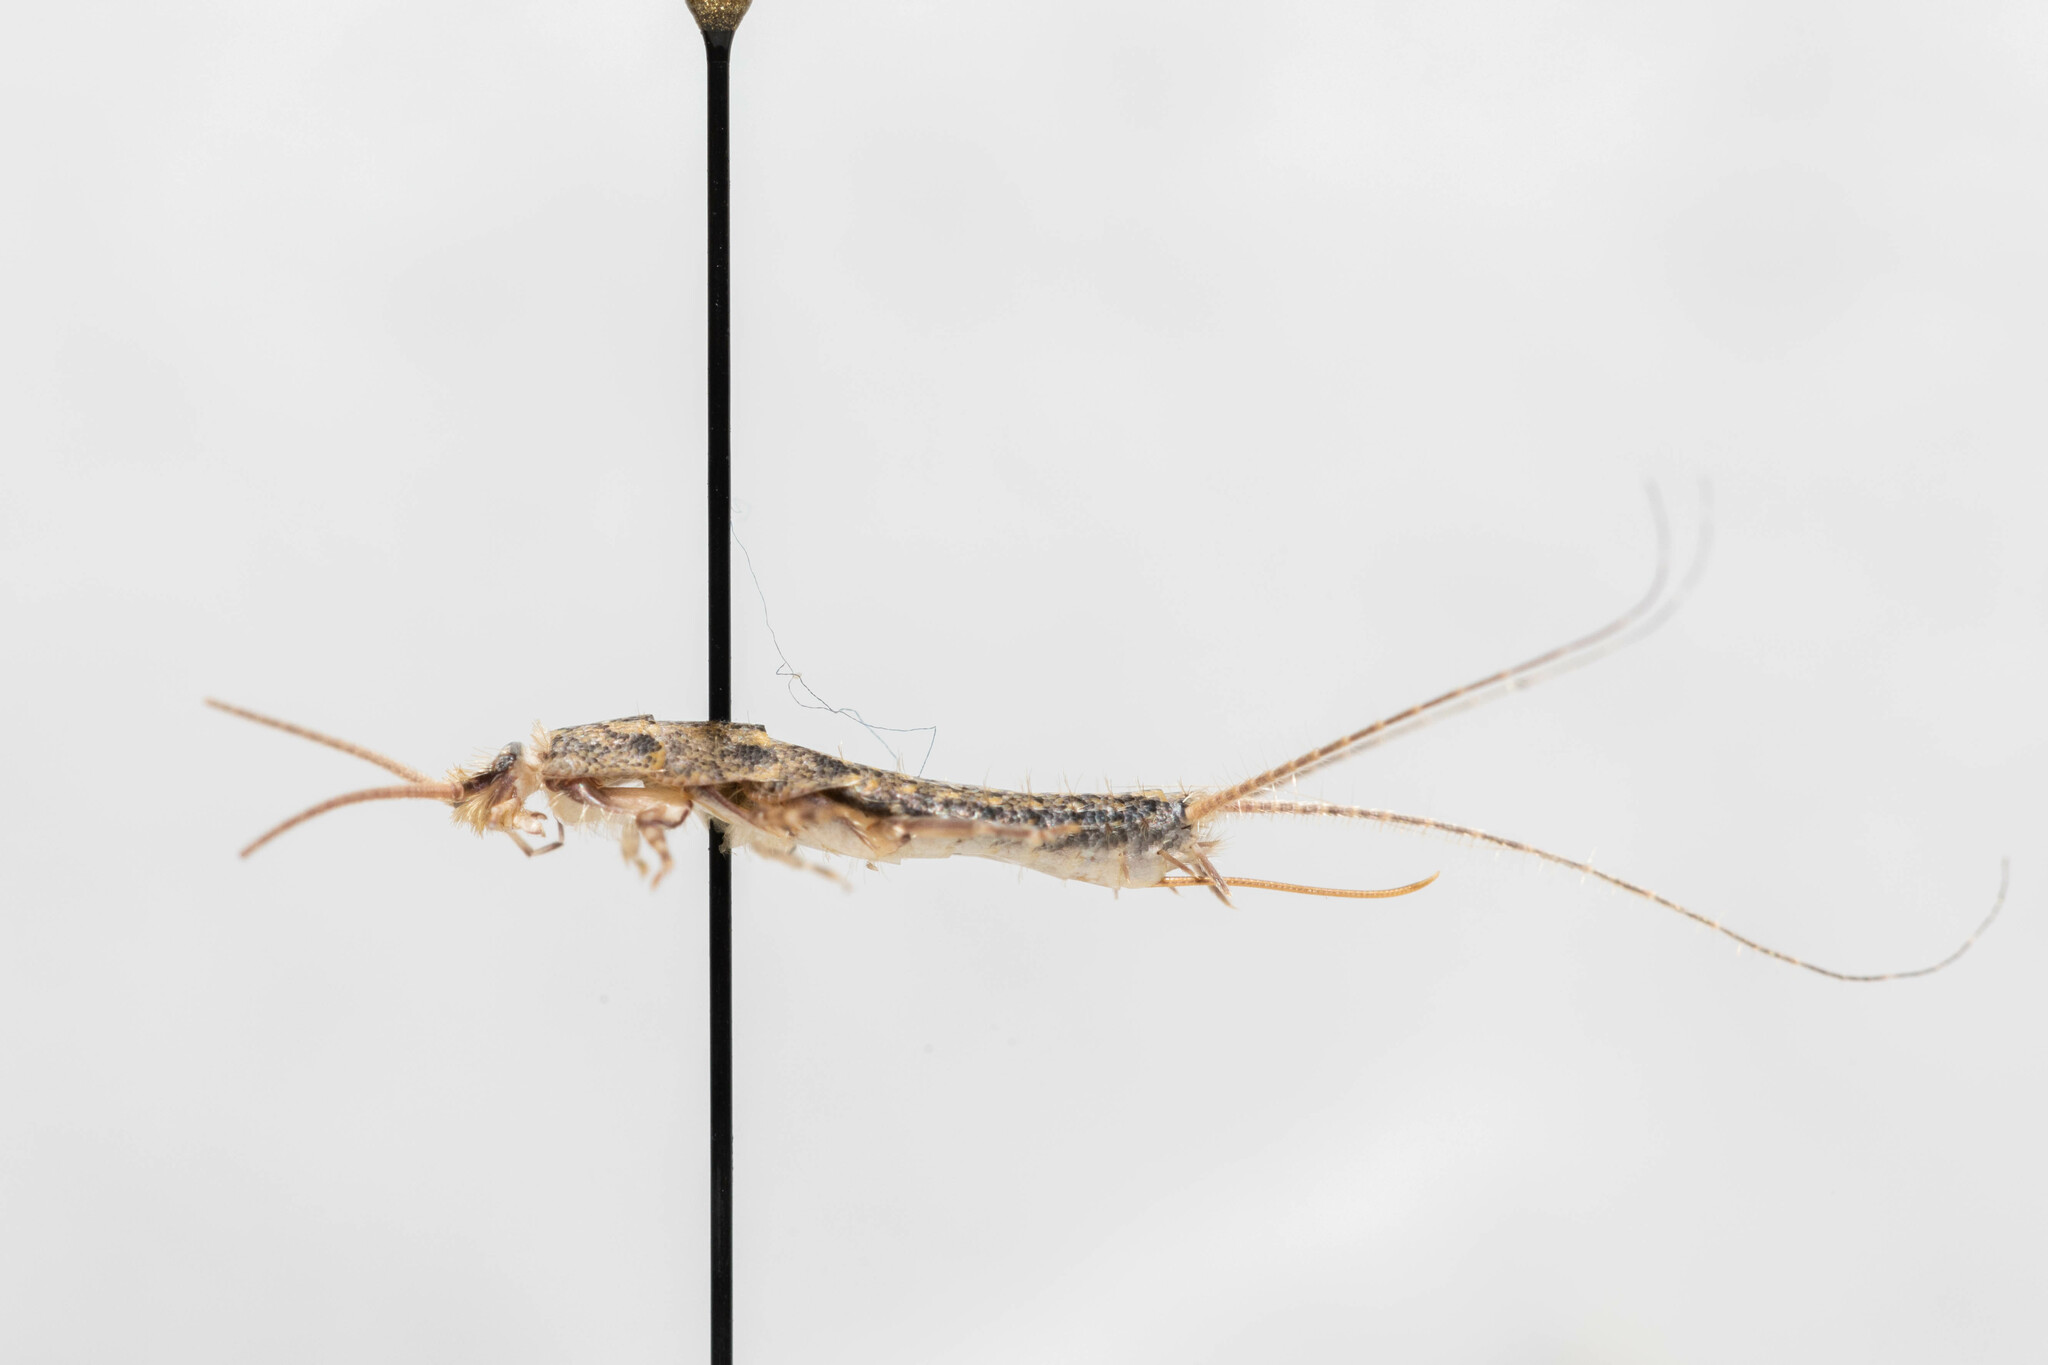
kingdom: Animalia
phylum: Arthropoda
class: Insecta
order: Zygentoma
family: Lepismatidae
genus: Ctenolepisma
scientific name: Ctenolepisma lineata
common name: Four-lined silverfish
